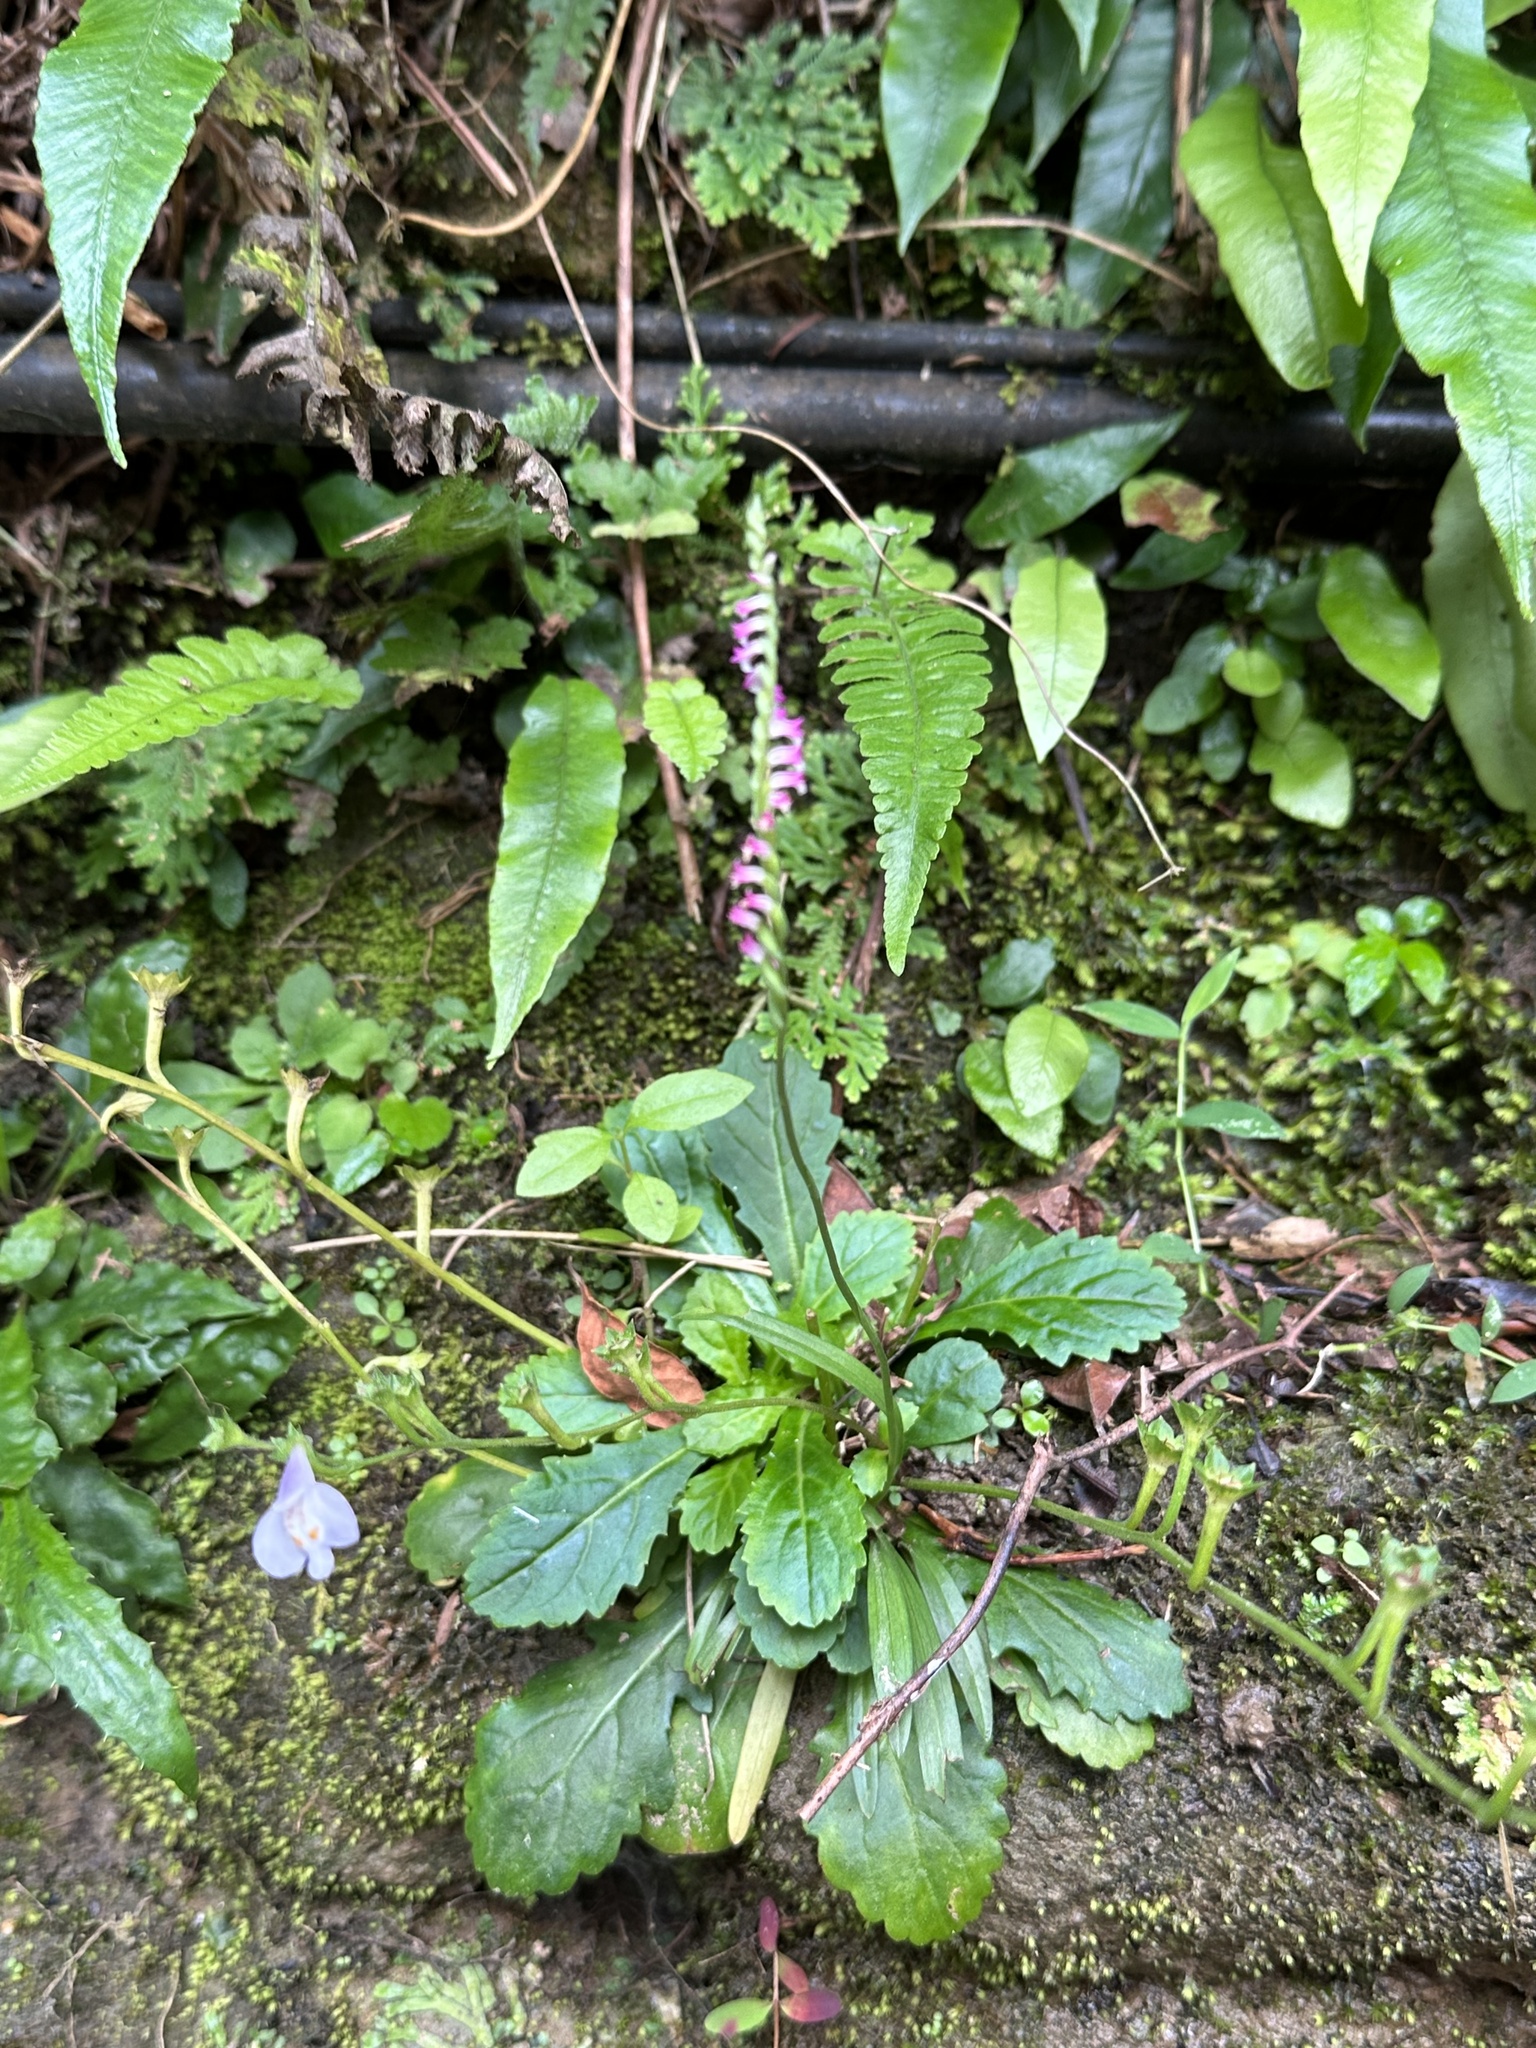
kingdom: Plantae
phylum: Tracheophyta
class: Liliopsida
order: Asparagales
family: Orchidaceae
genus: Spiranthes
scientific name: Spiranthes sinensis
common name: Chinese spiranthes
